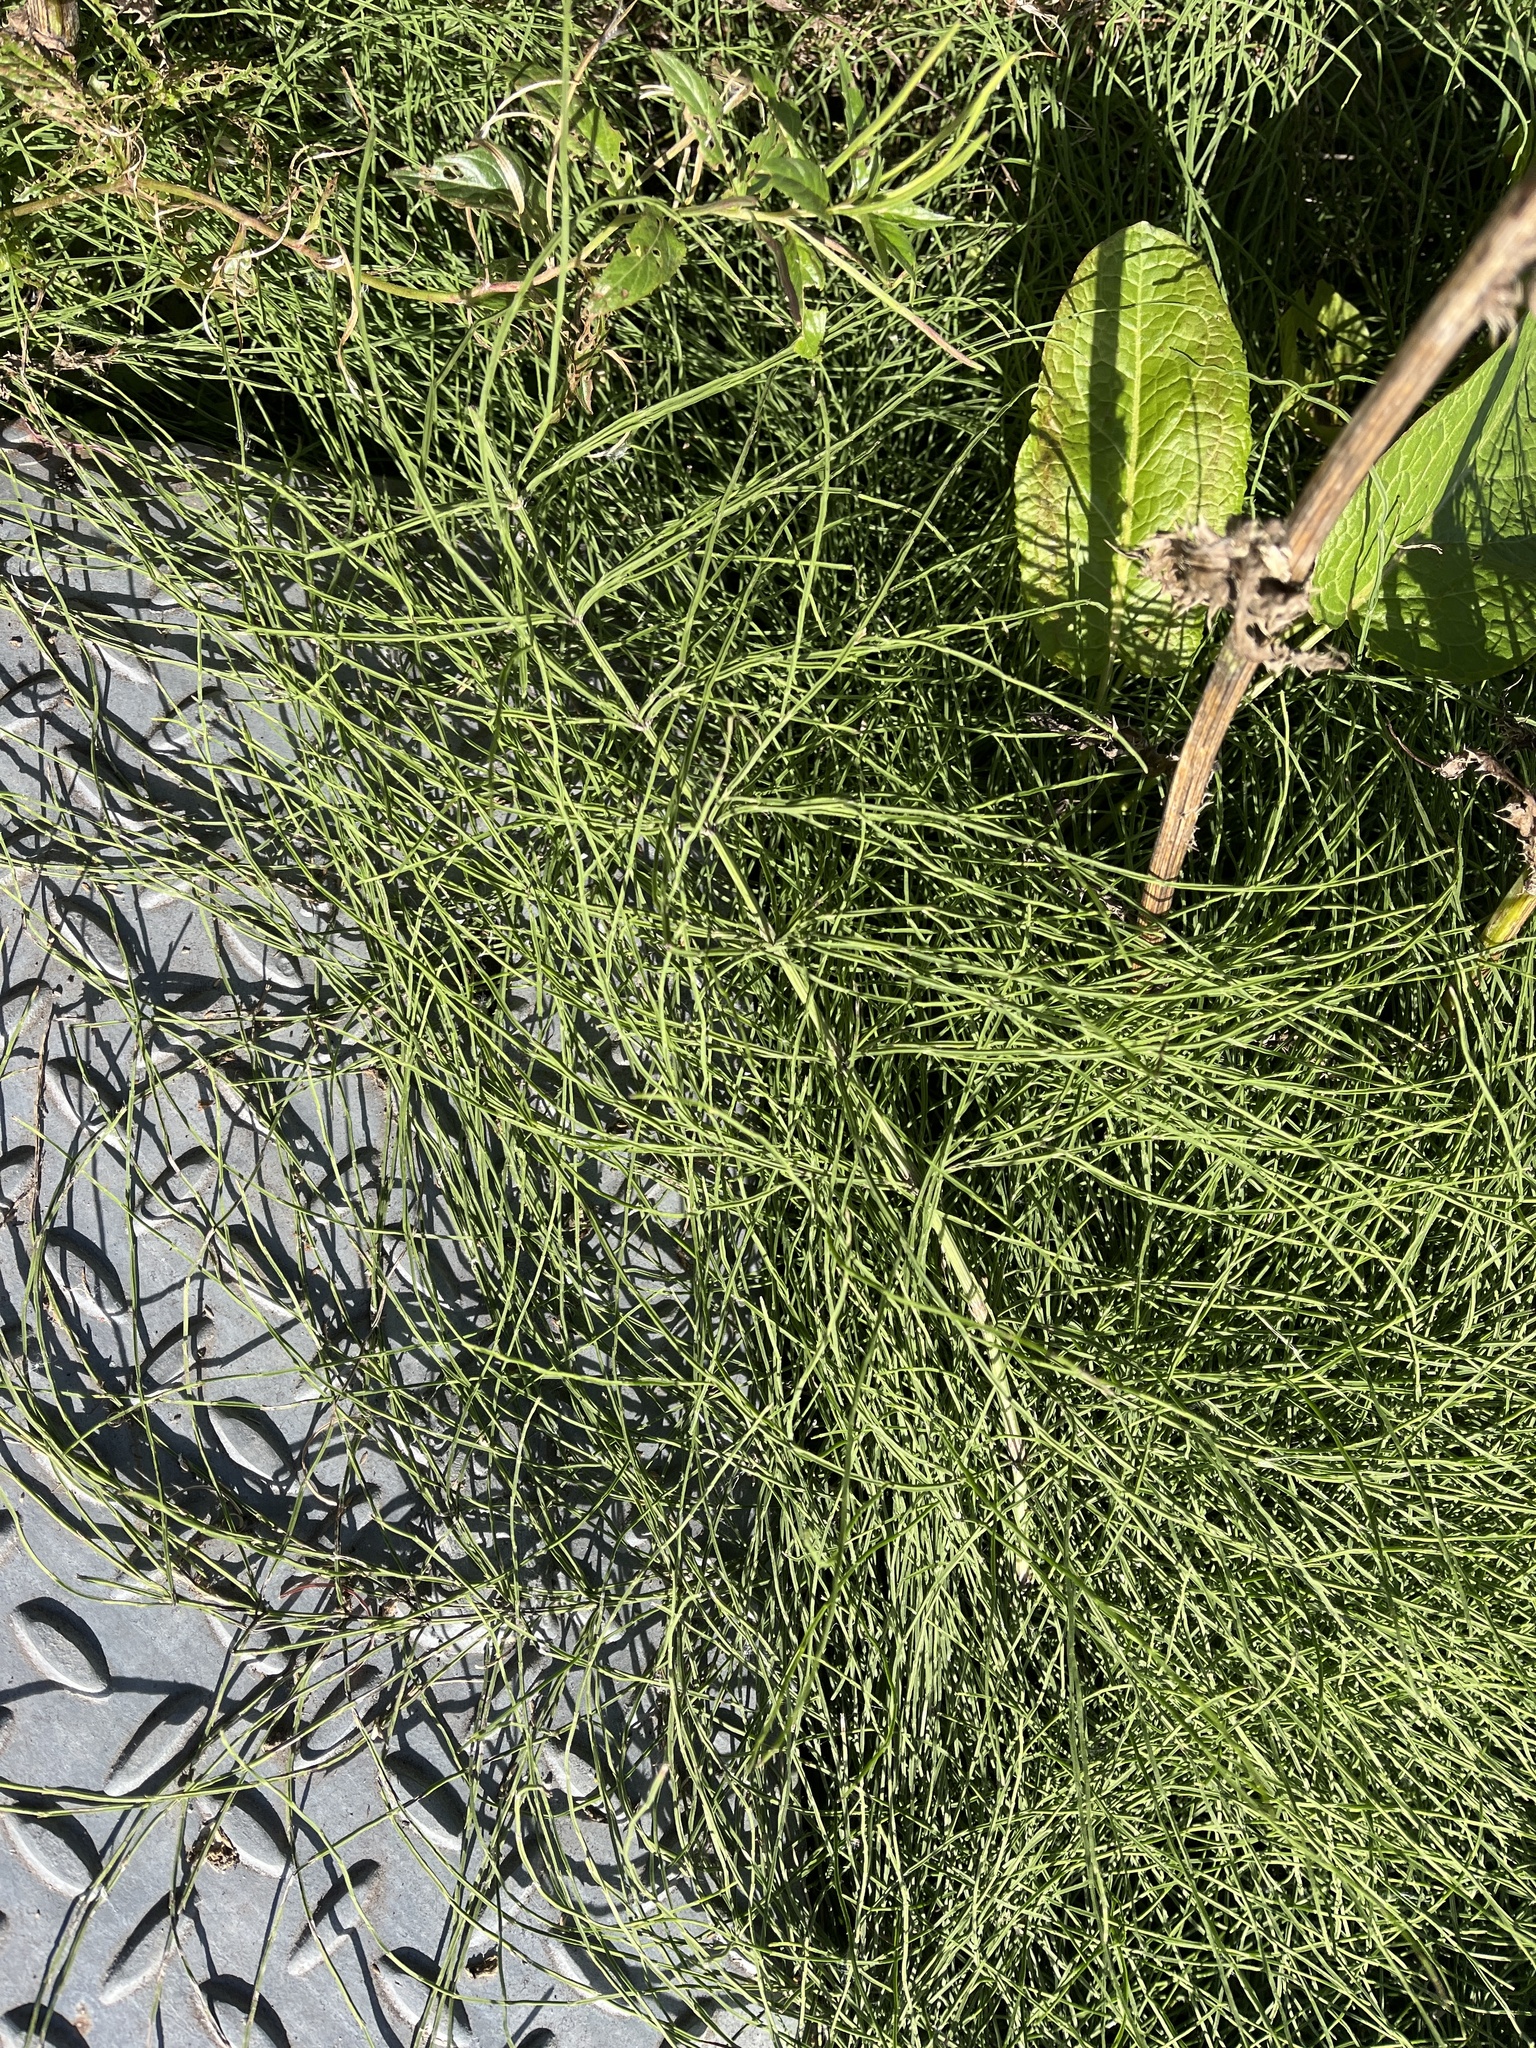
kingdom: Plantae
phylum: Tracheophyta
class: Polypodiopsida
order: Equisetales
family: Equisetaceae
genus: Equisetum
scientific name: Equisetum arvense
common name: Field horsetail
